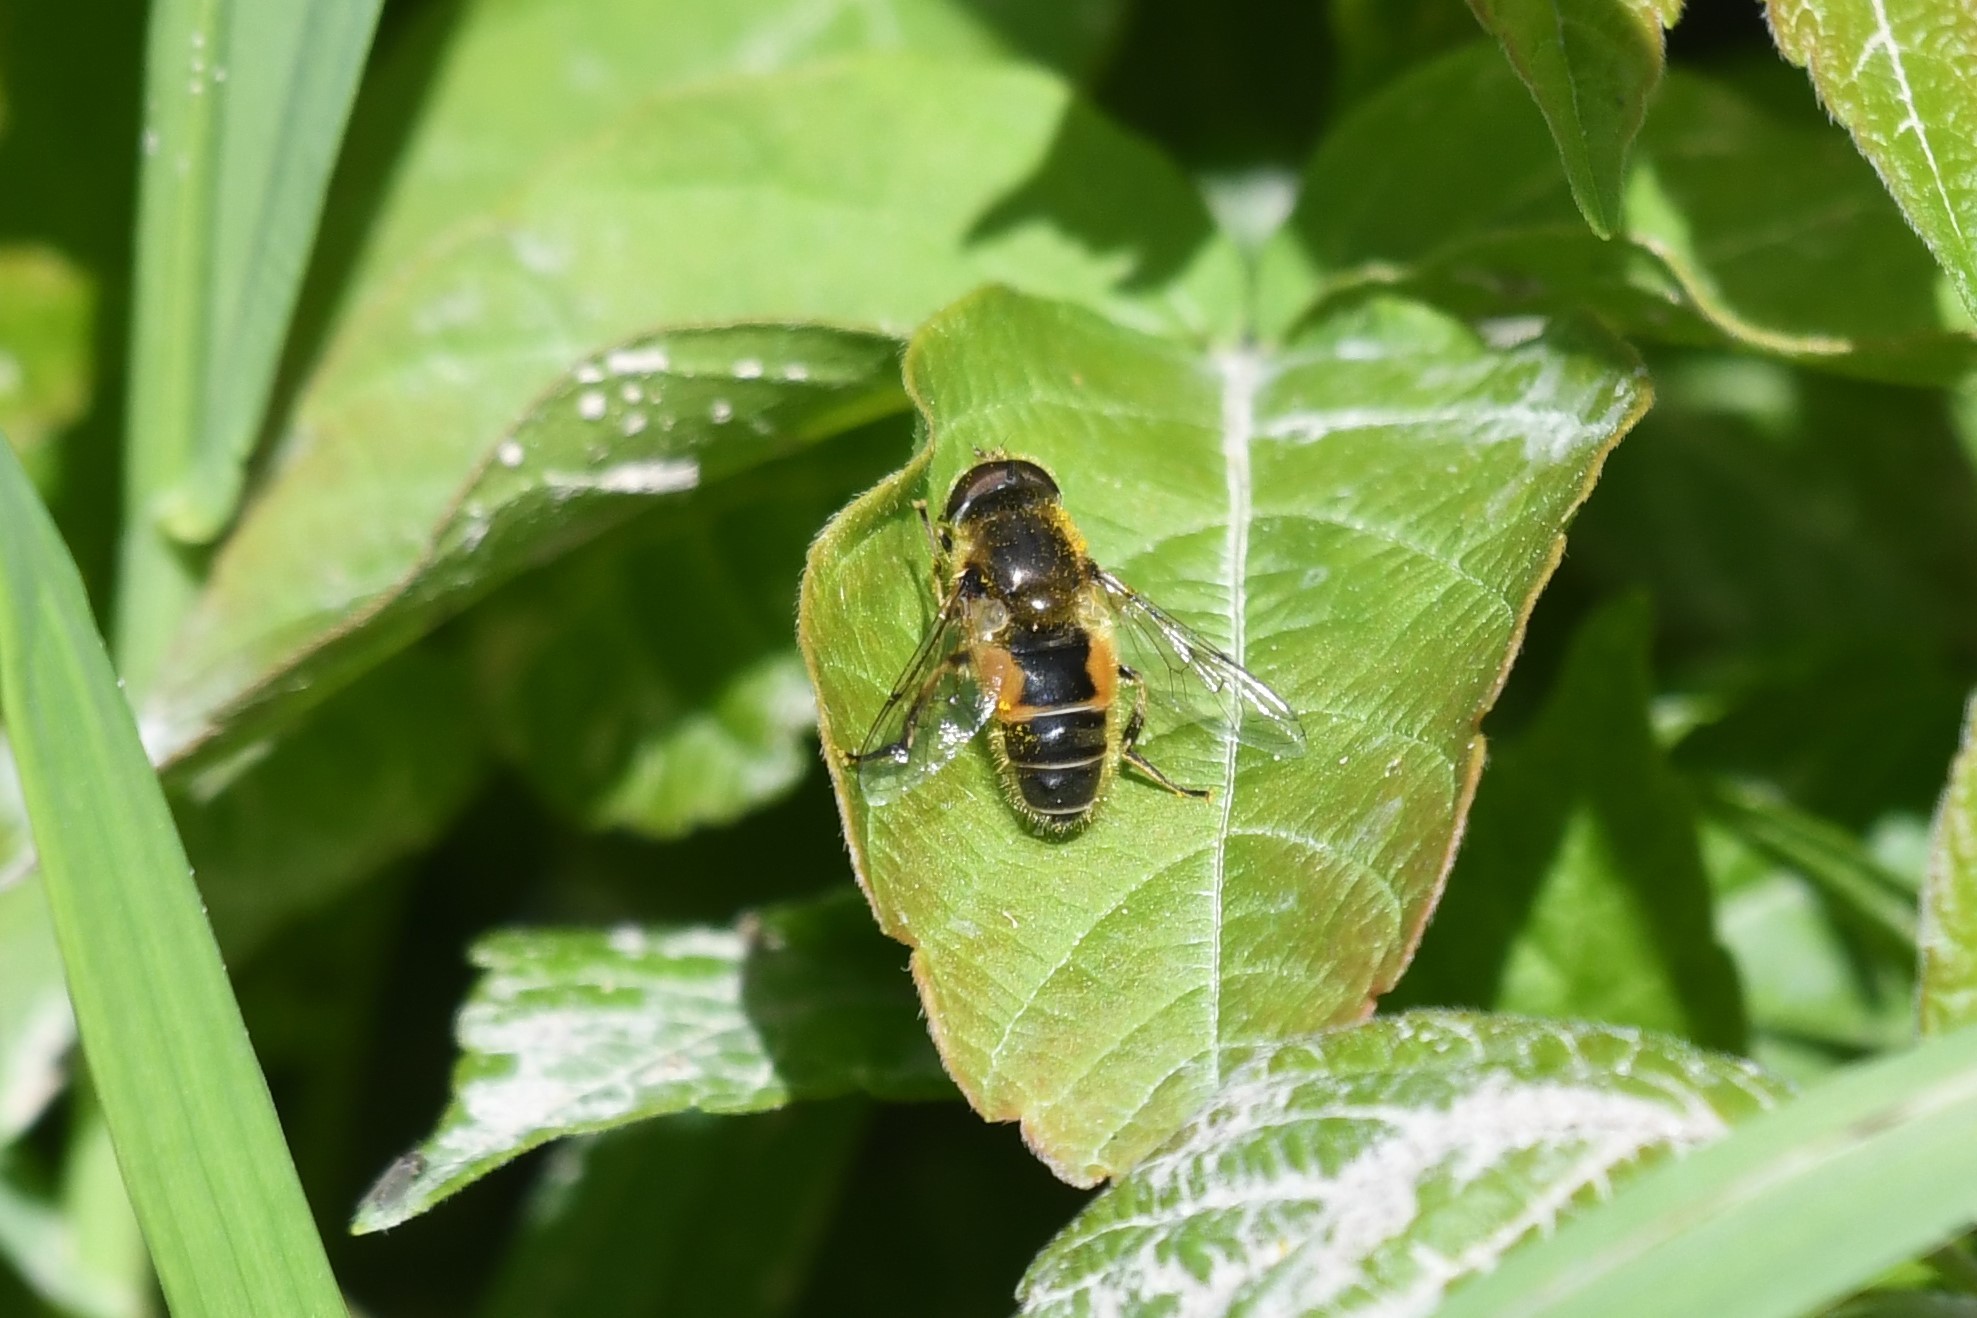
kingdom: Animalia
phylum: Arthropoda
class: Insecta
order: Diptera
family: Syrphidae
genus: Eristalis
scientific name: Eristalis arbustorum
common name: Hover fly
